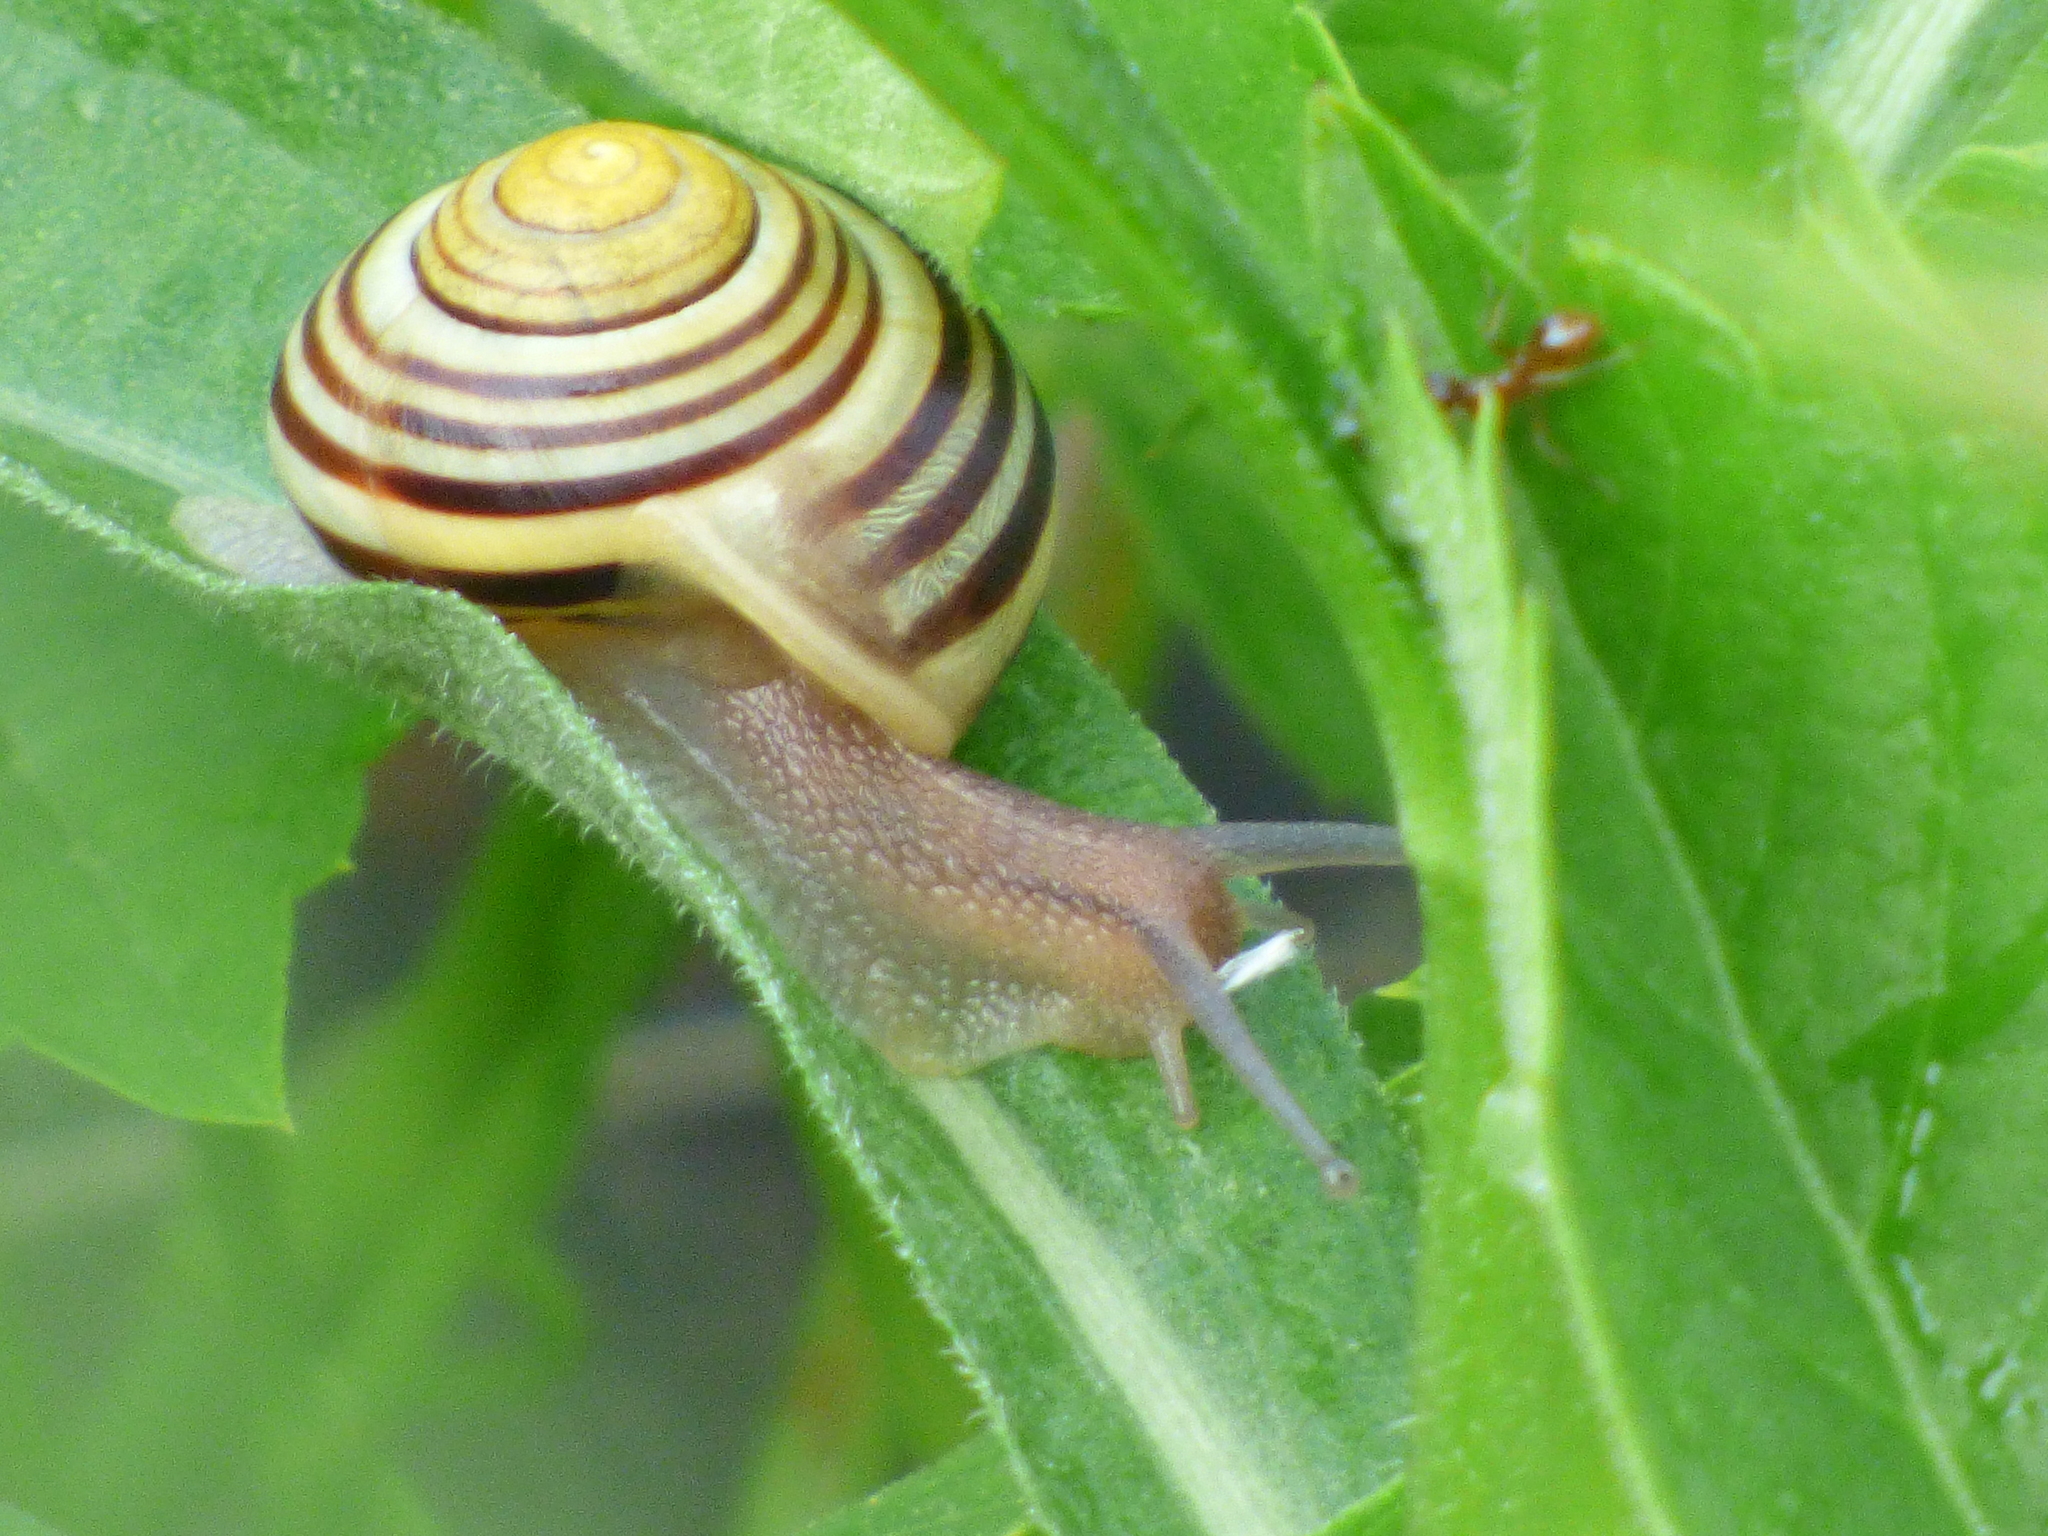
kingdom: Animalia
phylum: Mollusca
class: Gastropoda
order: Stylommatophora
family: Helicidae
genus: Cepaea
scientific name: Cepaea
